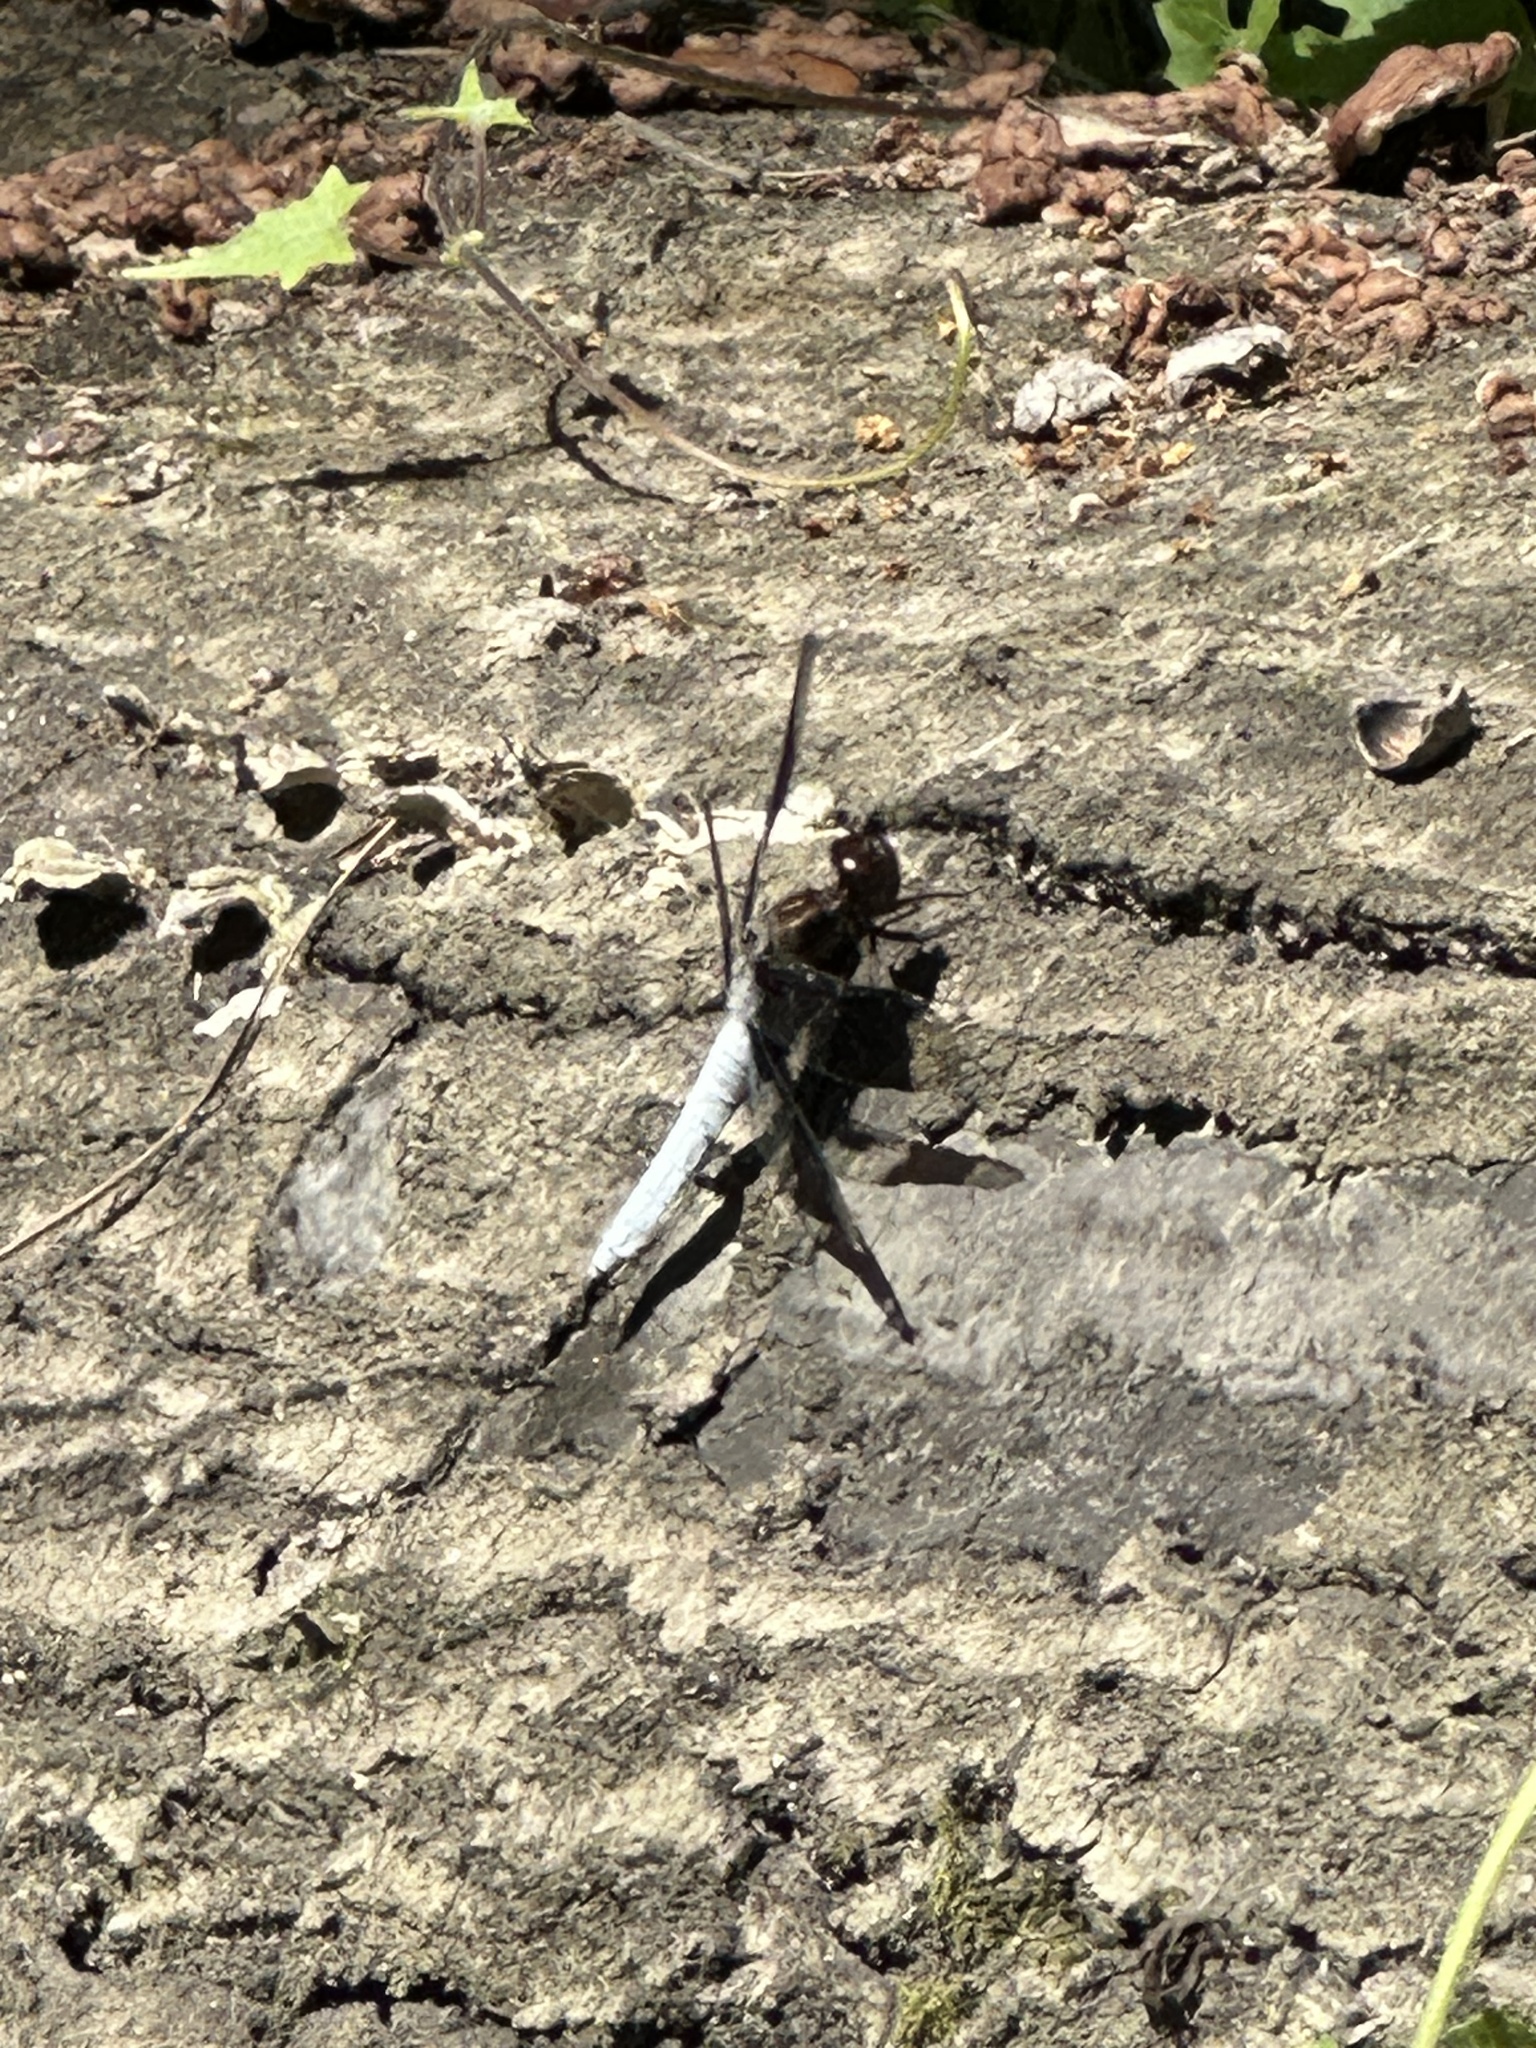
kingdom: Animalia
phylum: Arthropoda
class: Insecta
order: Odonata
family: Libellulidae
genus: Plathemis
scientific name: Plathemis lydia
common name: Common whitetail
